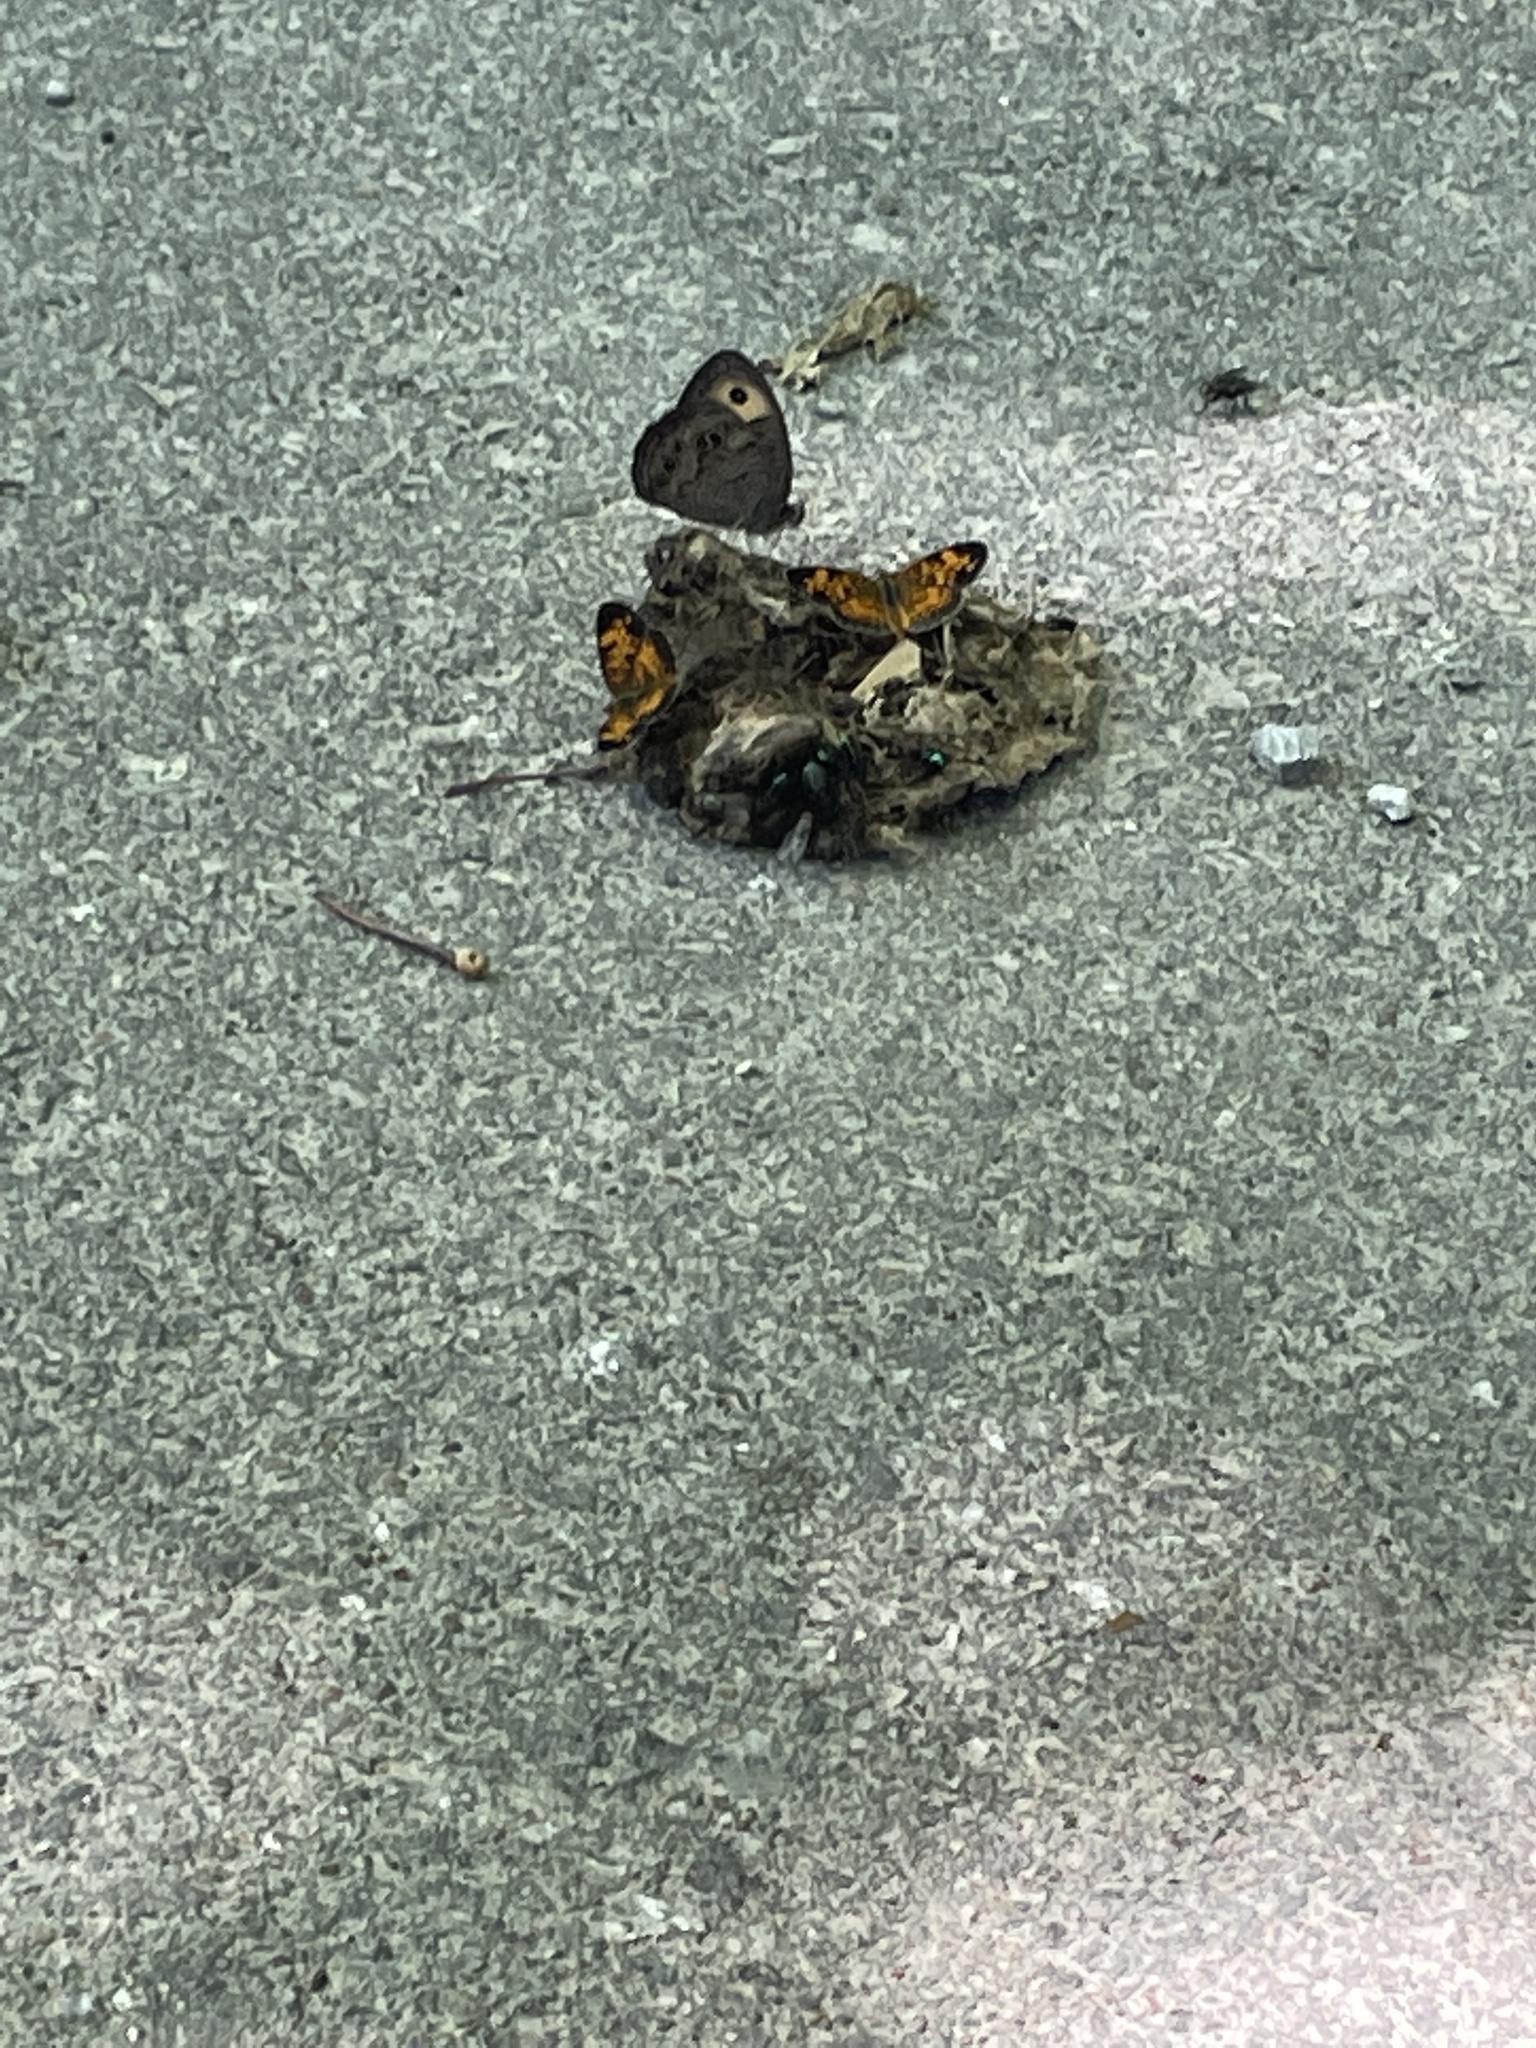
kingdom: Animalia
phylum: Arthropoda
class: Insecta
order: Lepidoptera
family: Nymphalidae
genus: Cercyonis
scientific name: Cercyonis pegala
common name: Common wood-nymph
